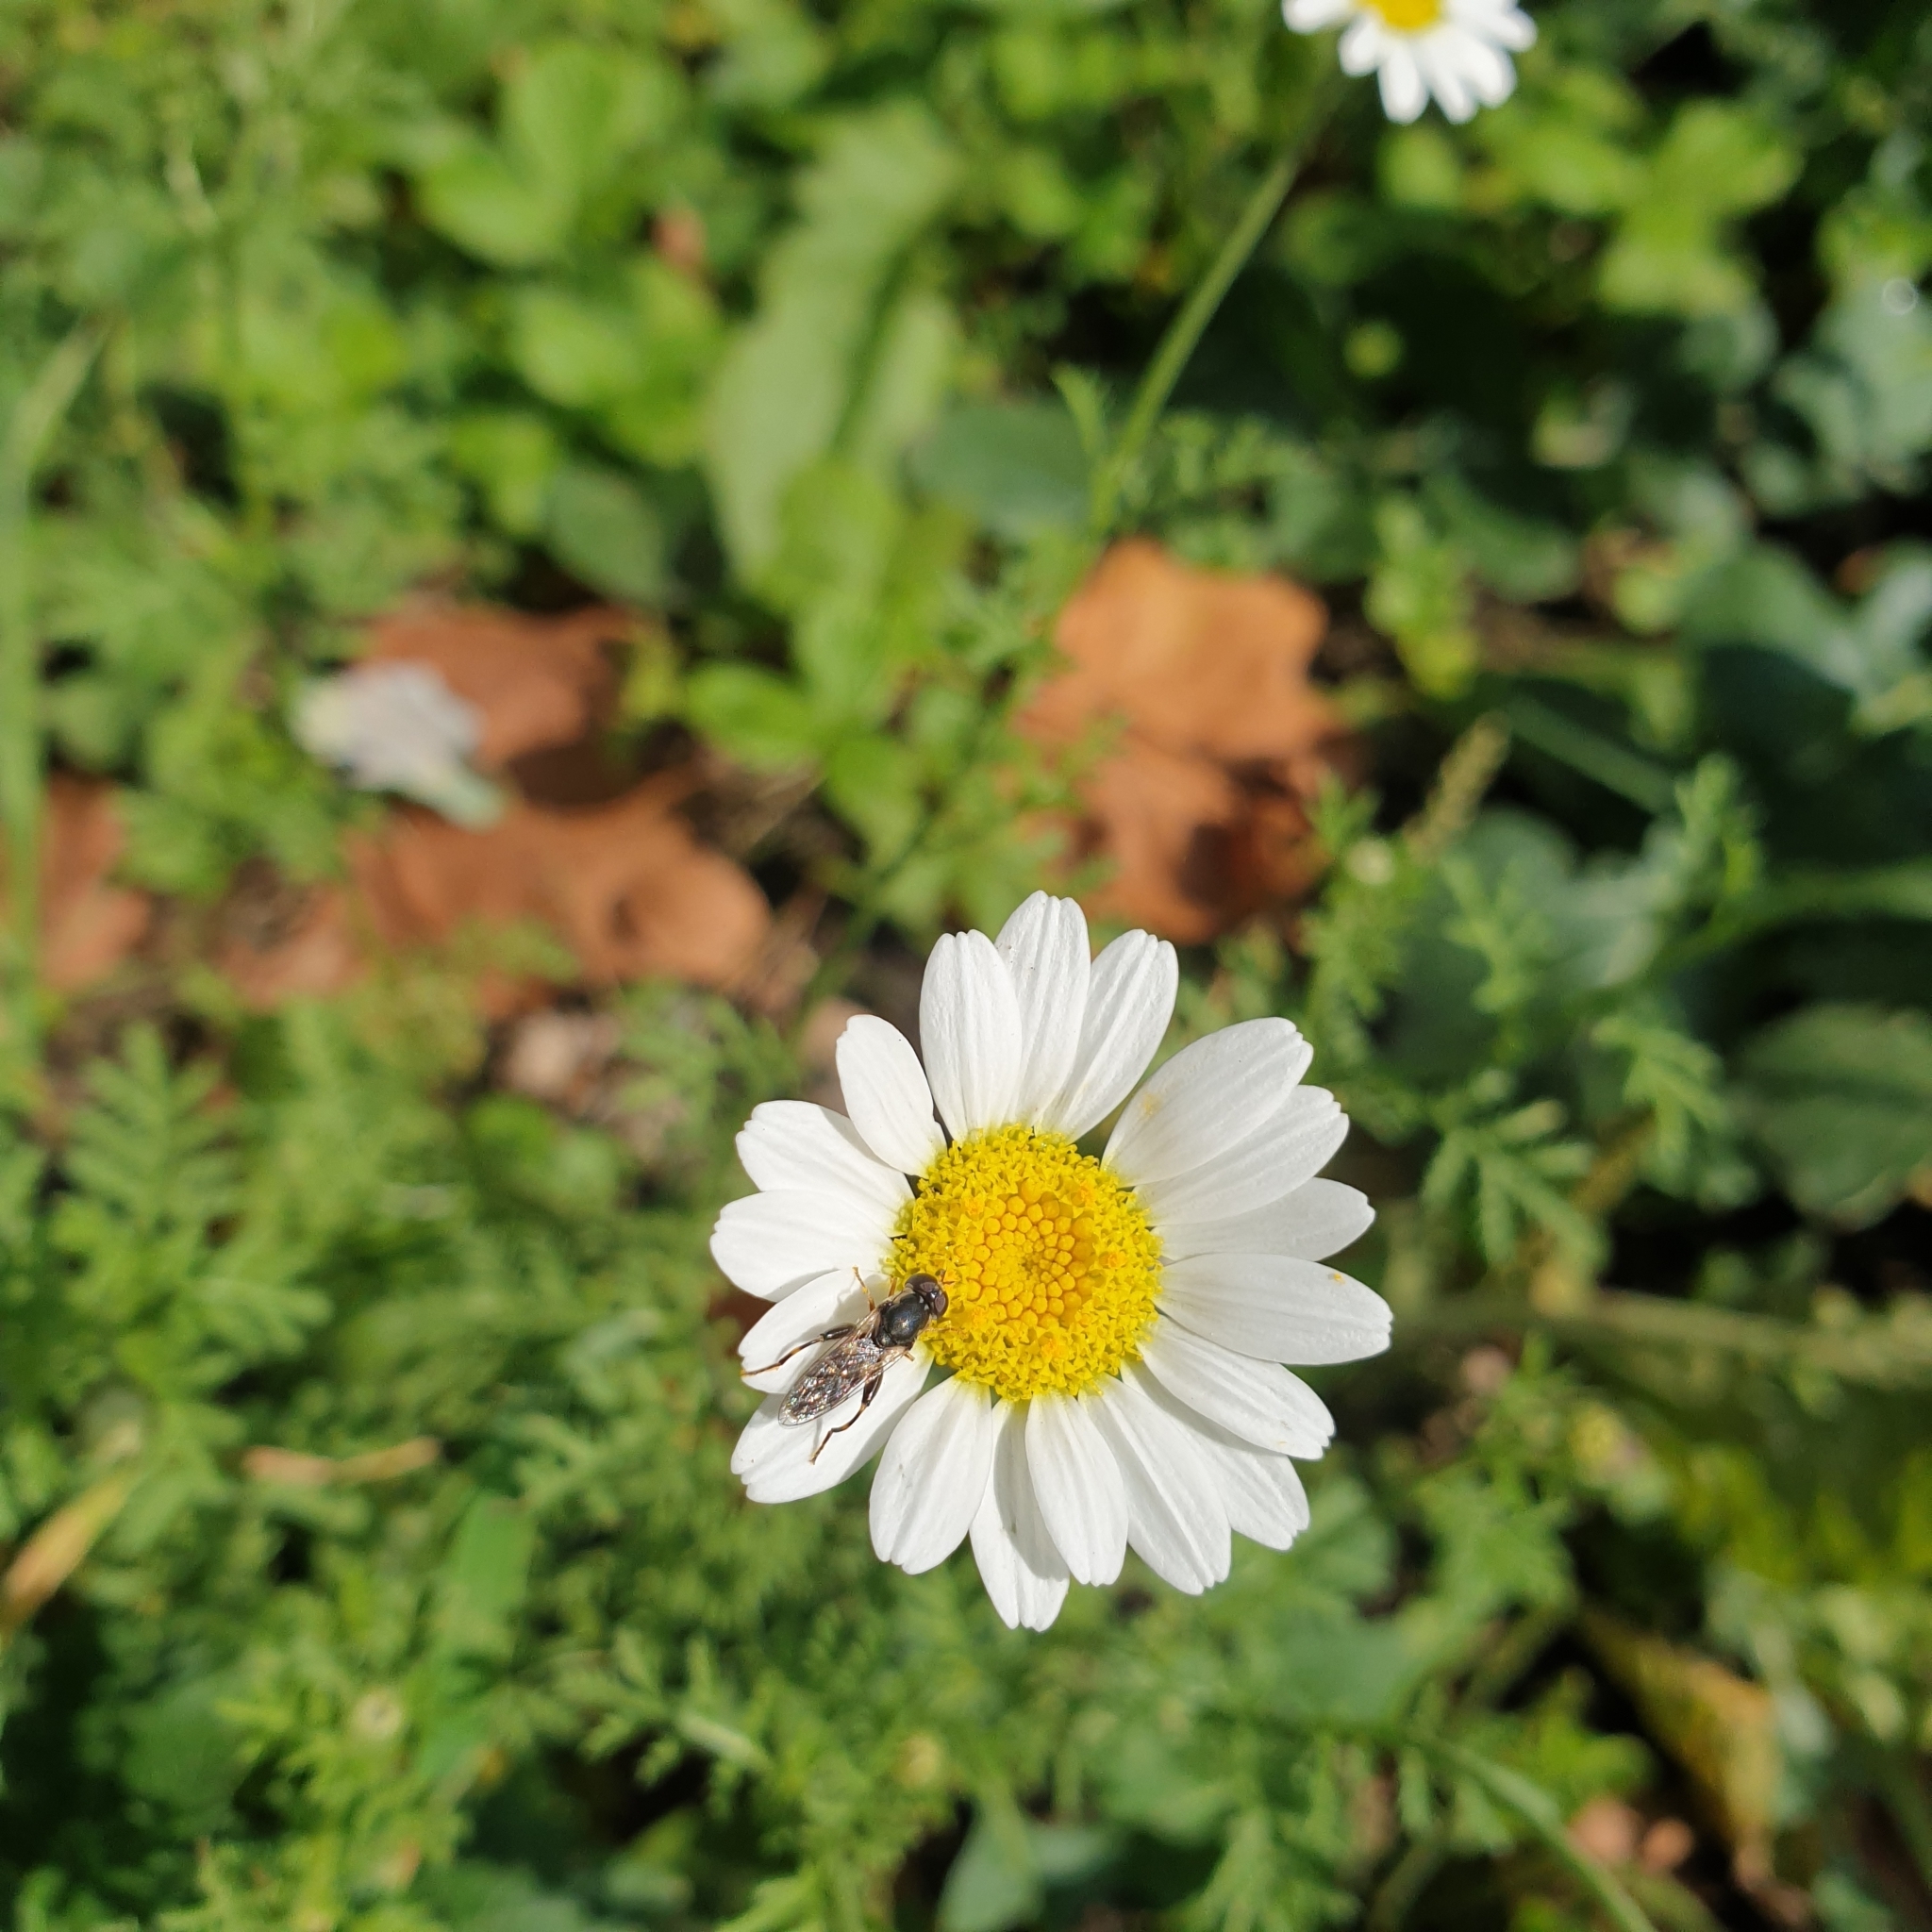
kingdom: Animalia
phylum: Arthropoda
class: Insecta
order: Diptera
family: Syrphidae
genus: Syritta
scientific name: Syritta pipiens
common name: Hover fly
